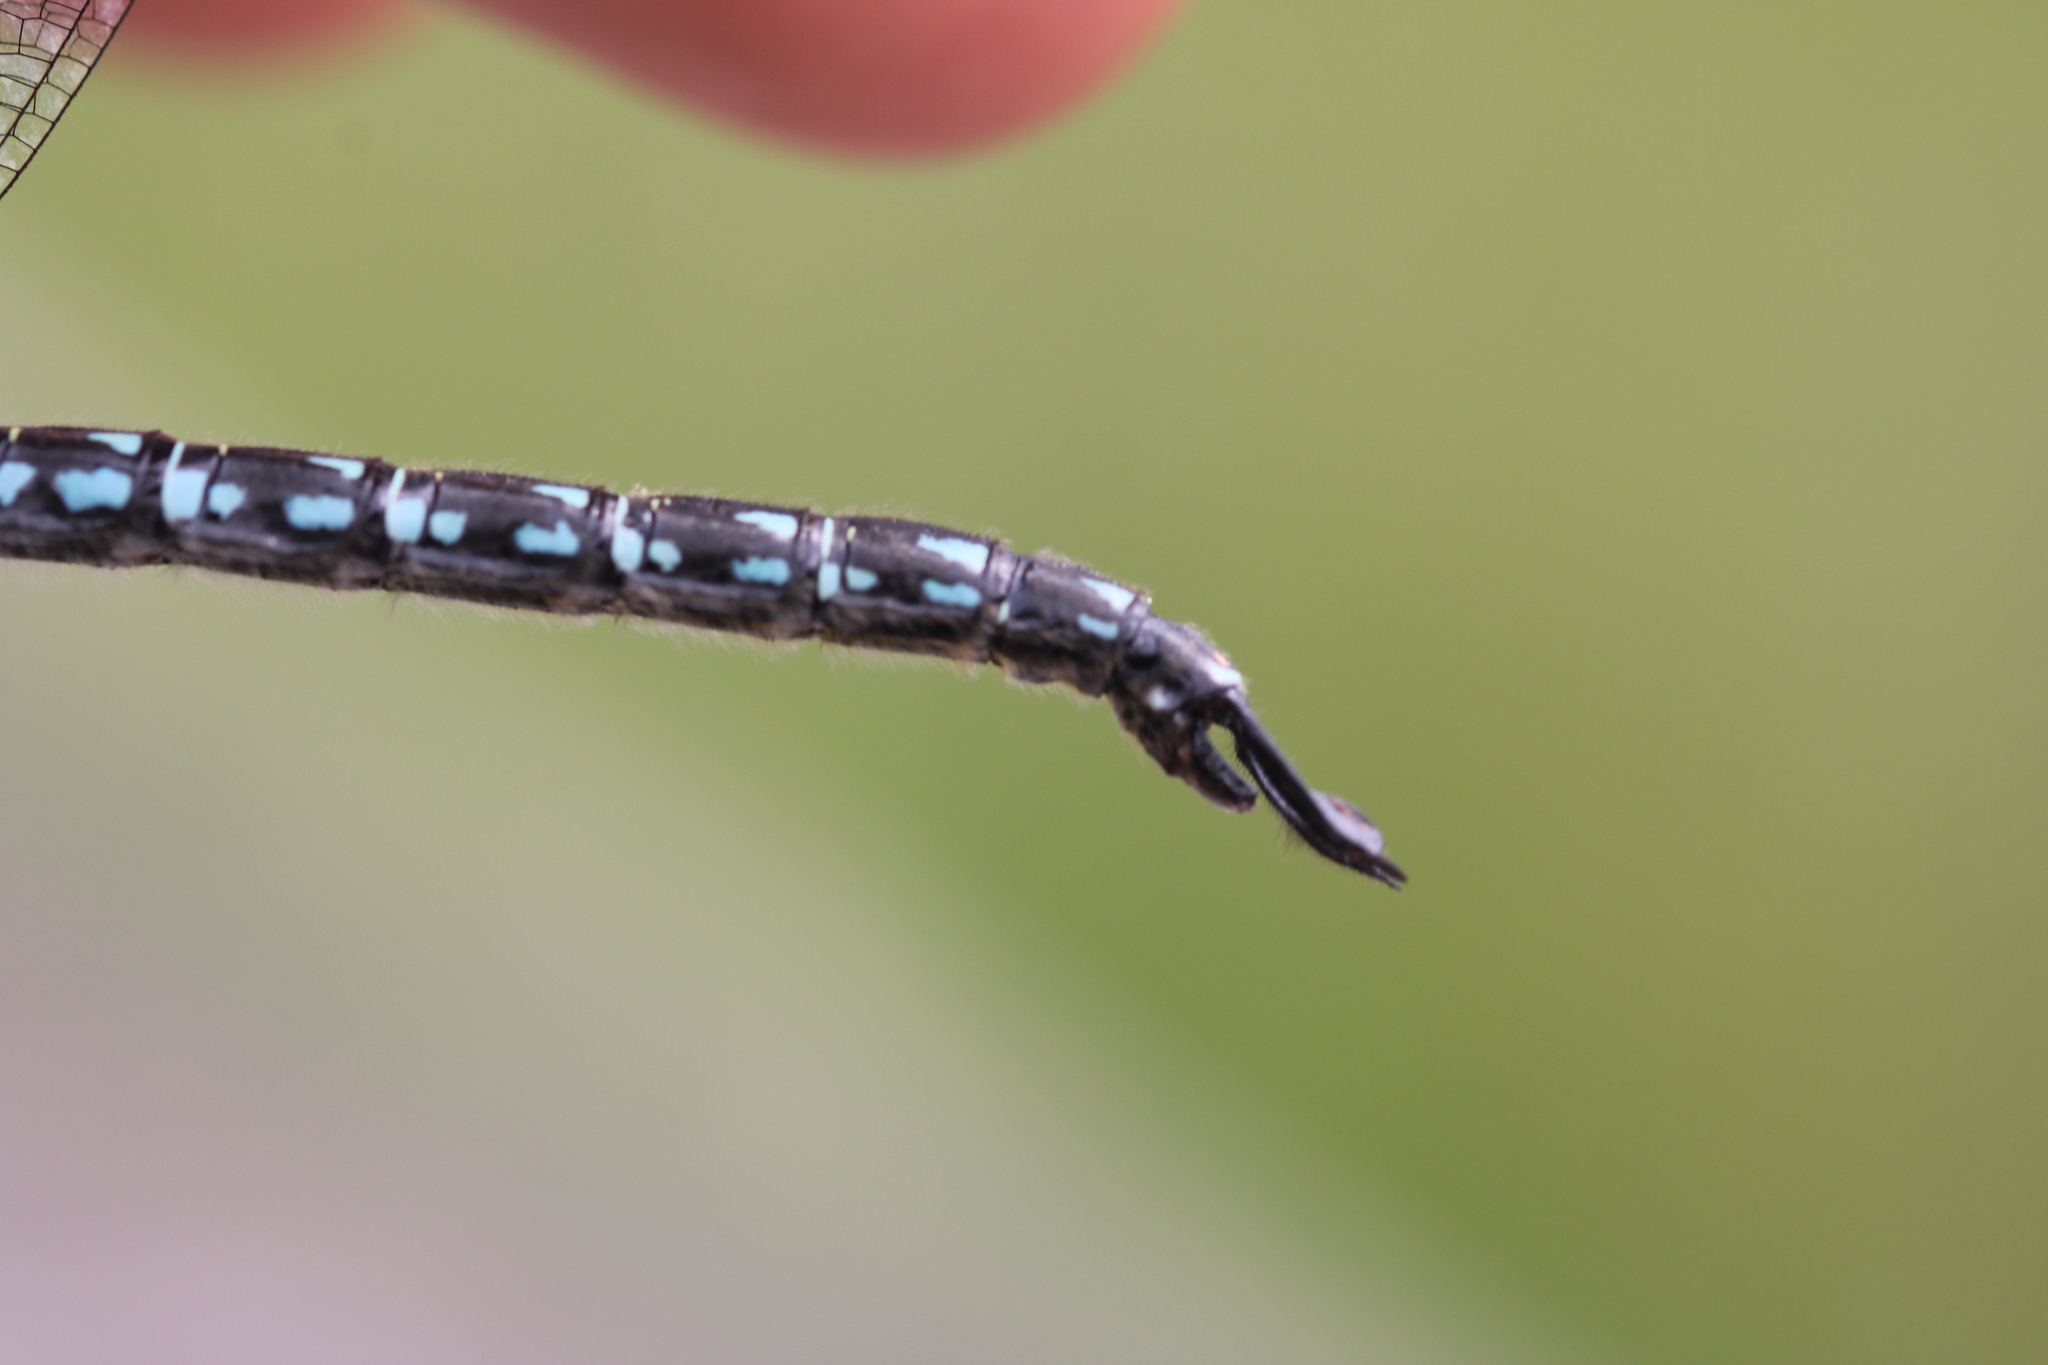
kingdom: Animalia
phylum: Arthropoda
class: Insecta
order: Odonata
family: Aeshnidae
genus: Brachytron
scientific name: Brachytron pratense
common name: Hairy hawker
